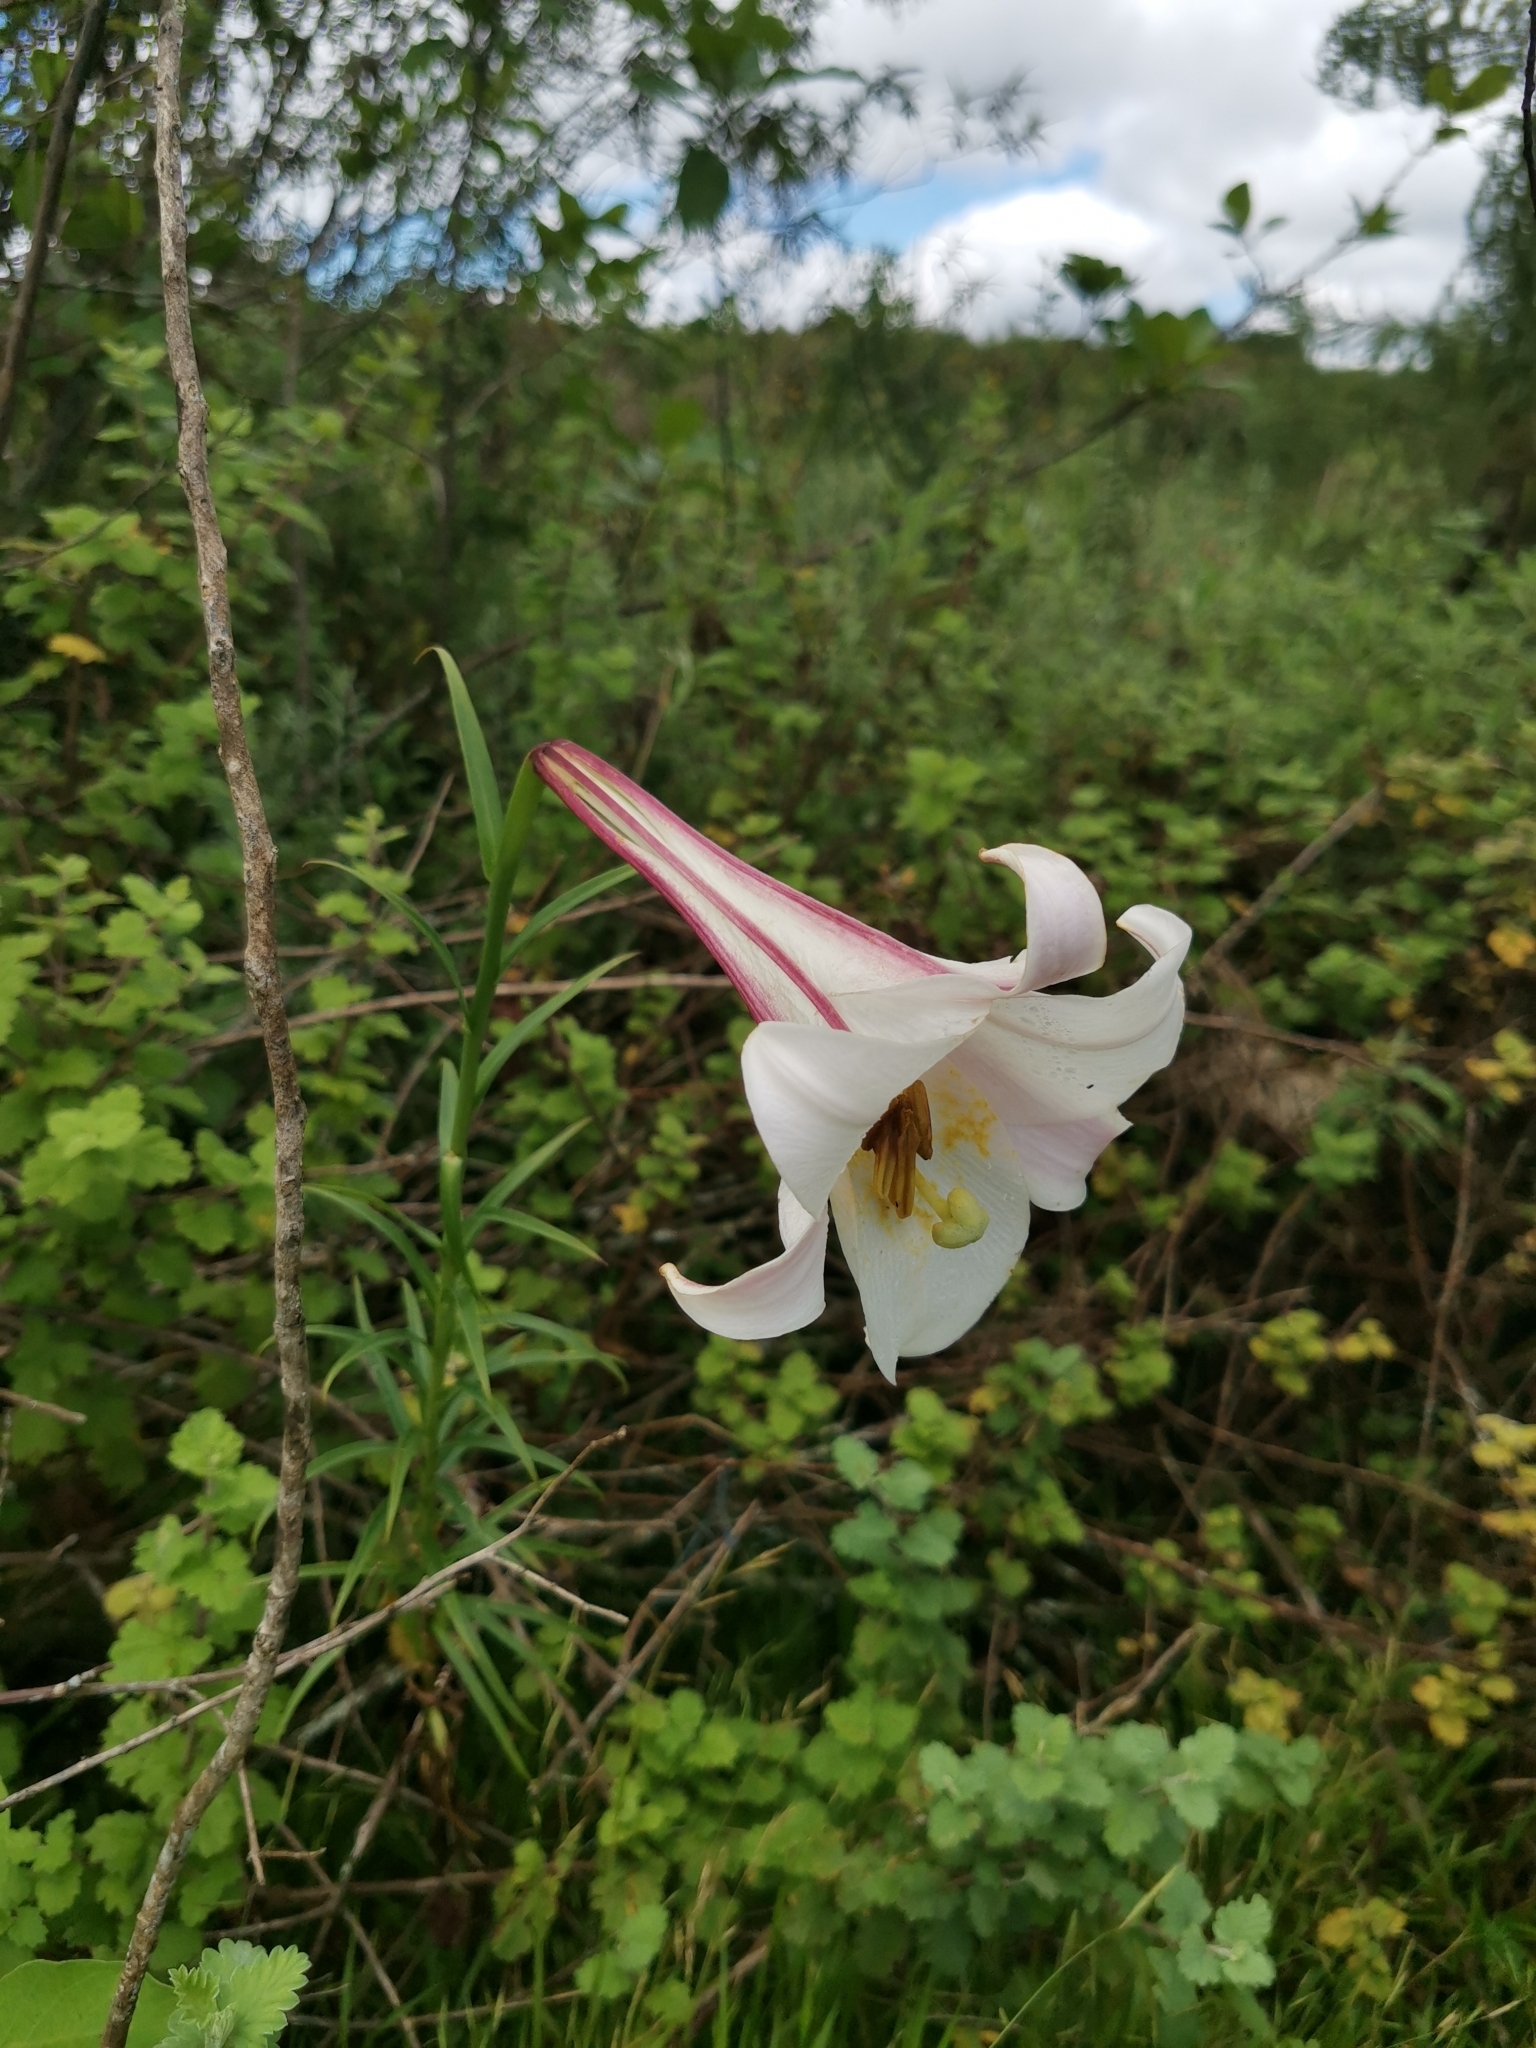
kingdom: Plantae
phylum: Tracheophyta
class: Liliopsida
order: Liliales
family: Liliaceae
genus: Lilium
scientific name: Lilium formosanum
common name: Formosa lily
